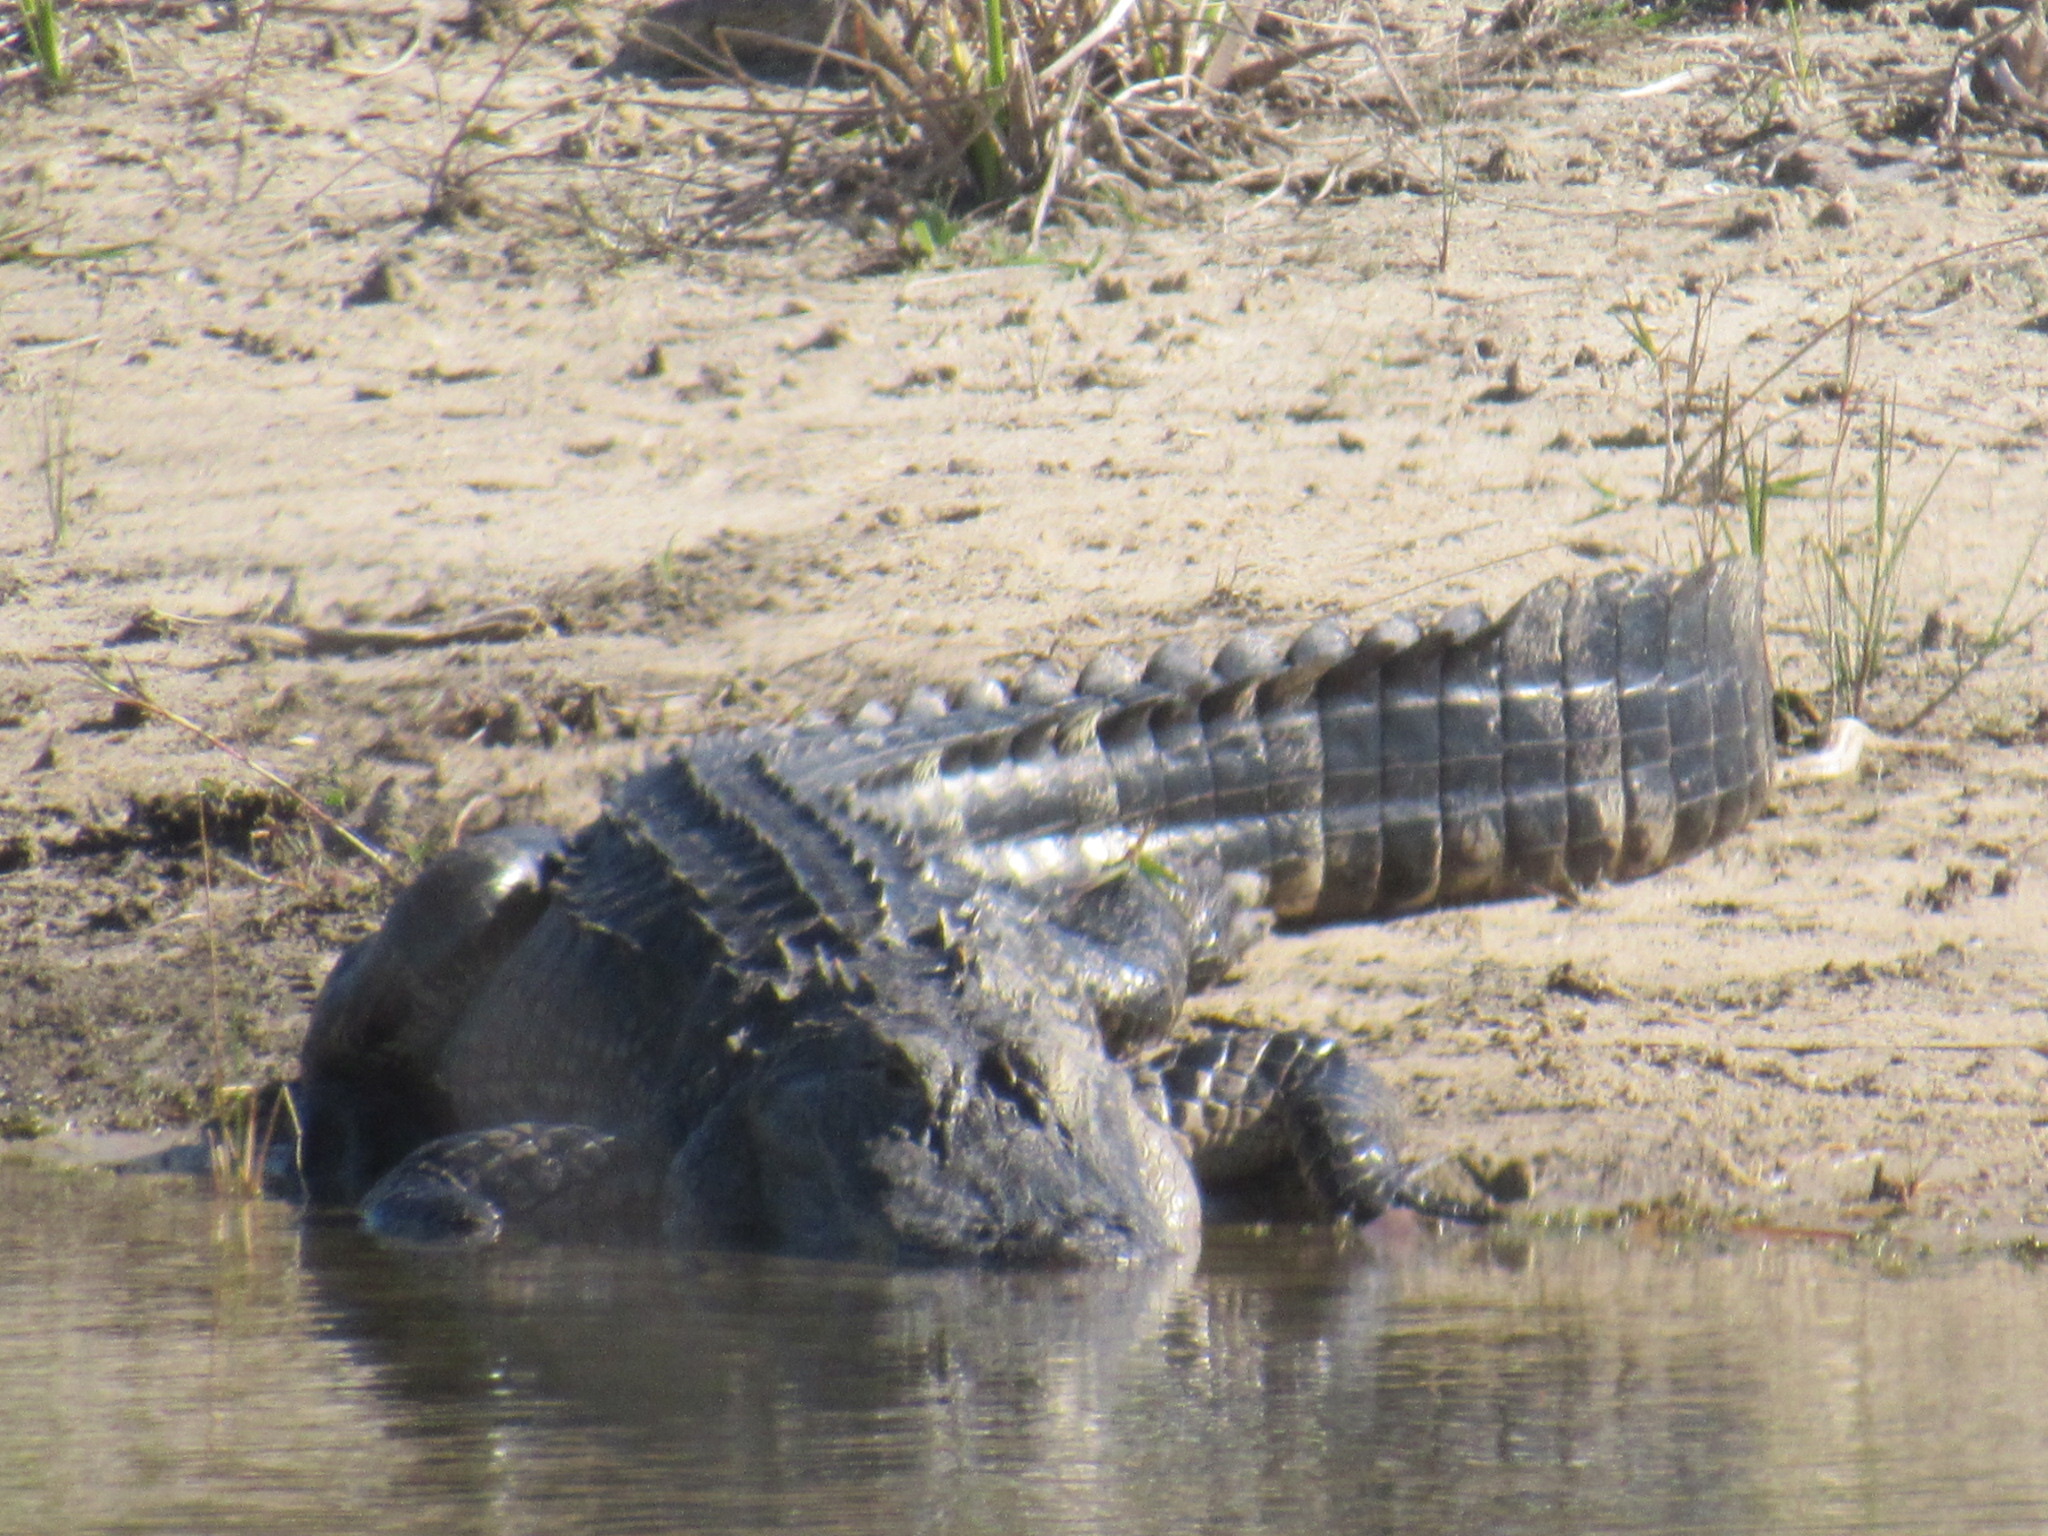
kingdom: Animalia
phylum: Chordata
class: Crocodylia
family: Alligatoridae
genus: Alligator
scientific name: Alligator mississippiensis
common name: American alligator
